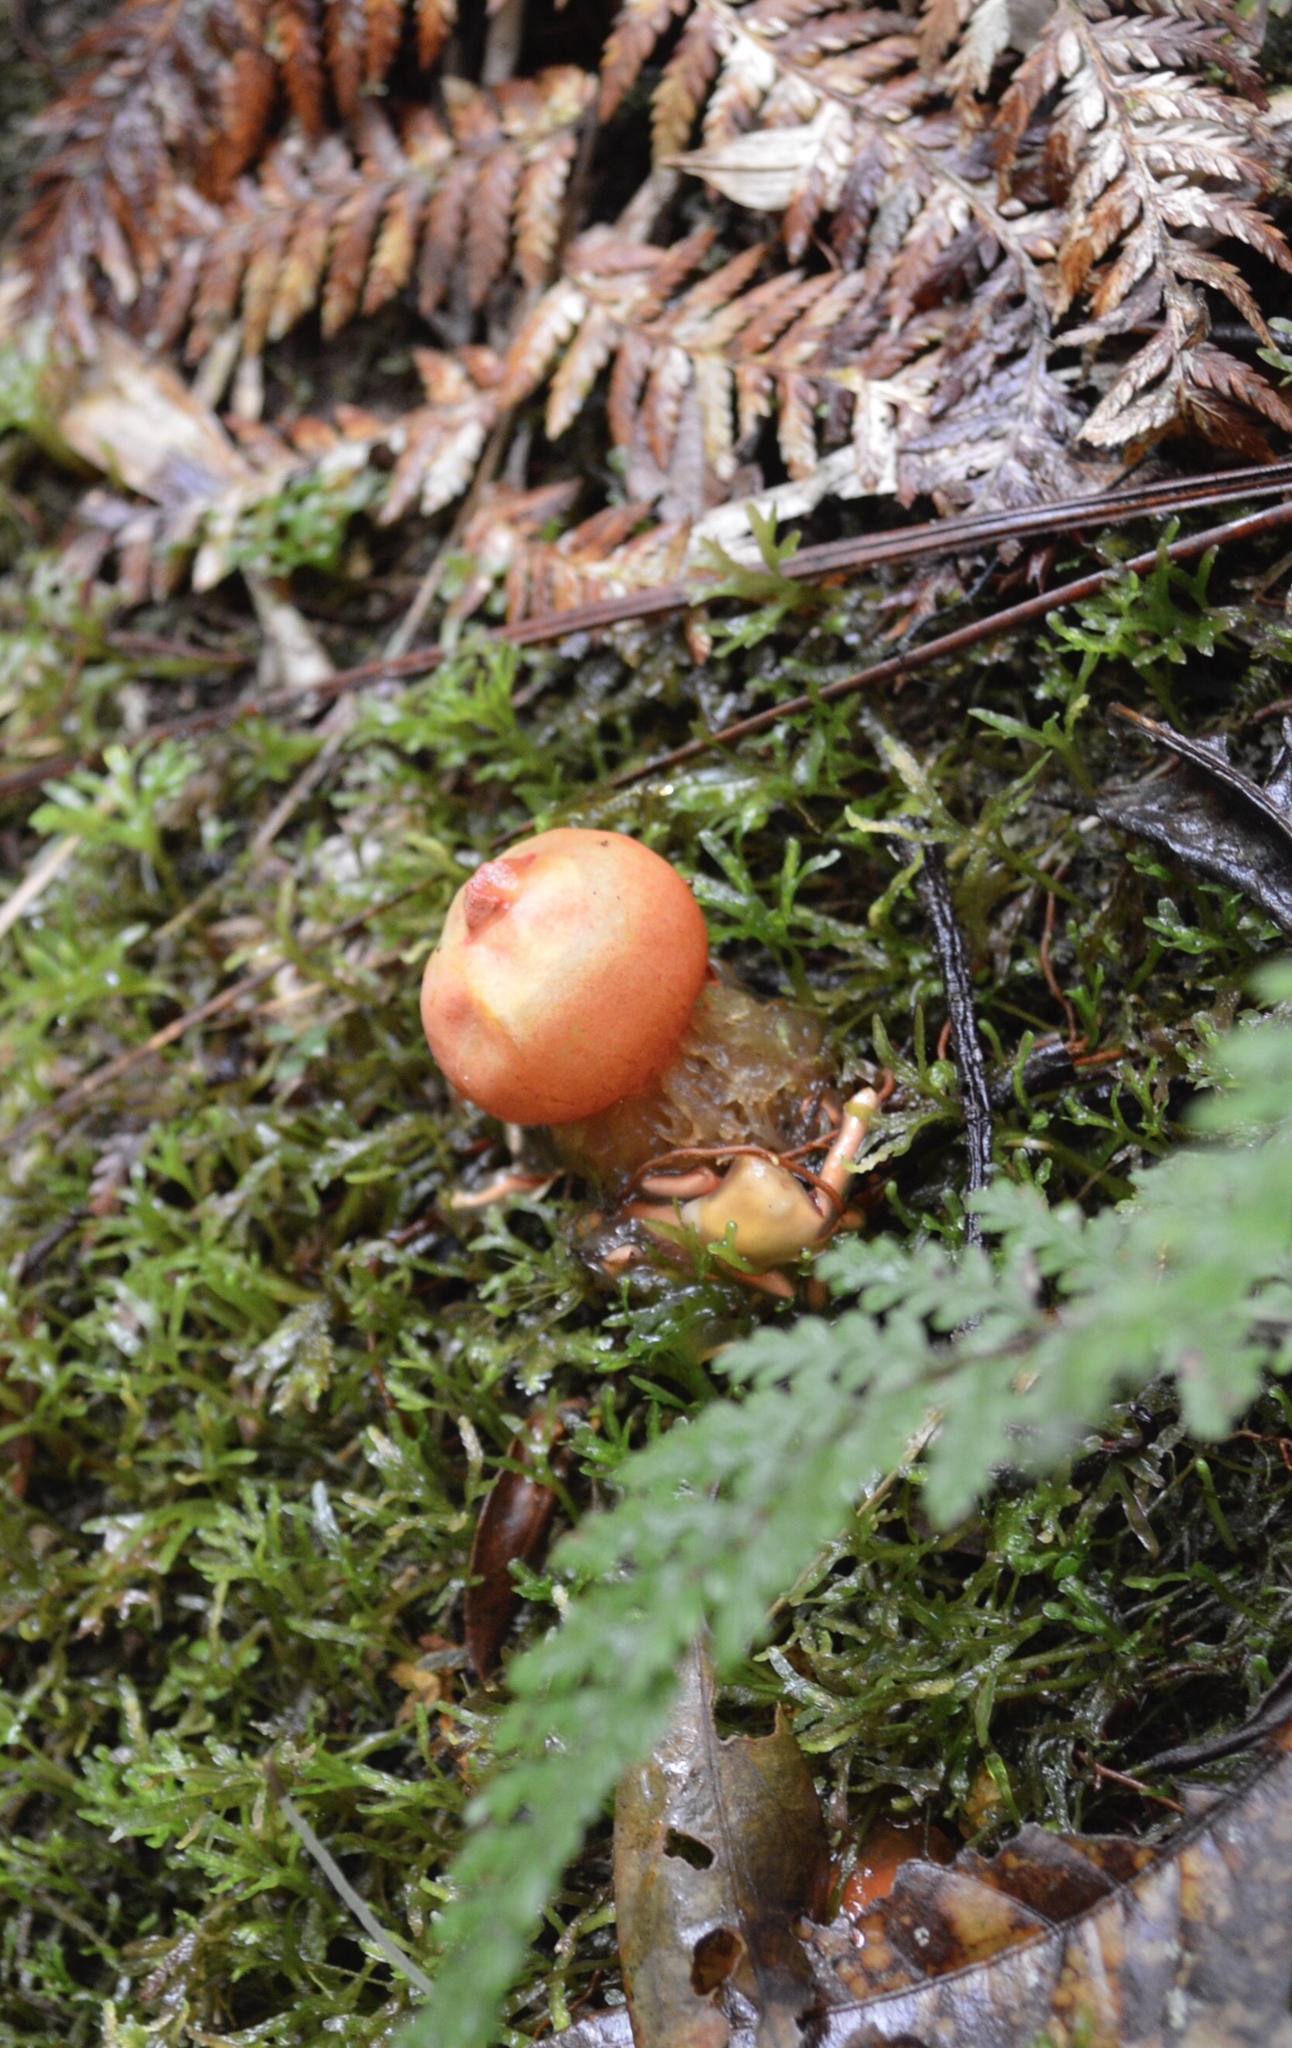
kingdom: Fungi
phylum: Basidiomycota
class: Agaricomycetes
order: Boletales
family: Calostomataceae
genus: Calostoma
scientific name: Calostoma cinnabarinum
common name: Stalked puffball-in-aspic
